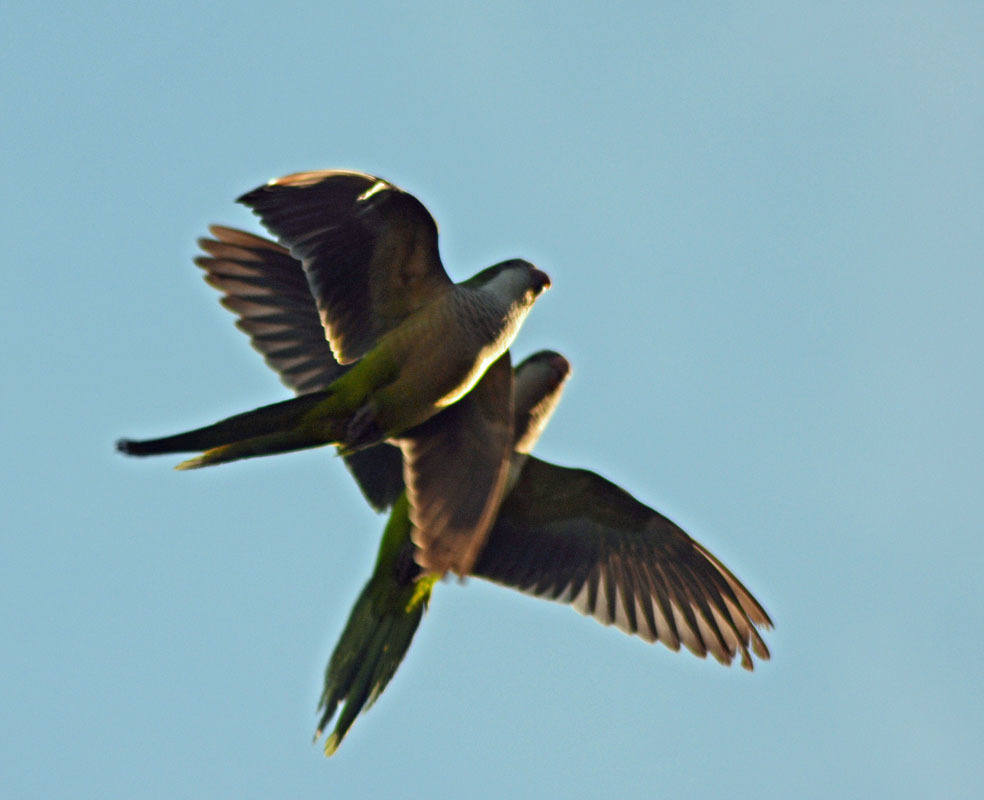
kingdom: Animalia
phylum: Chordata
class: Aves
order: Psittaciformes
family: Psittacidae
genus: Myiopsitta
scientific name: Myiopsitta monachus
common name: Monk parakeet
